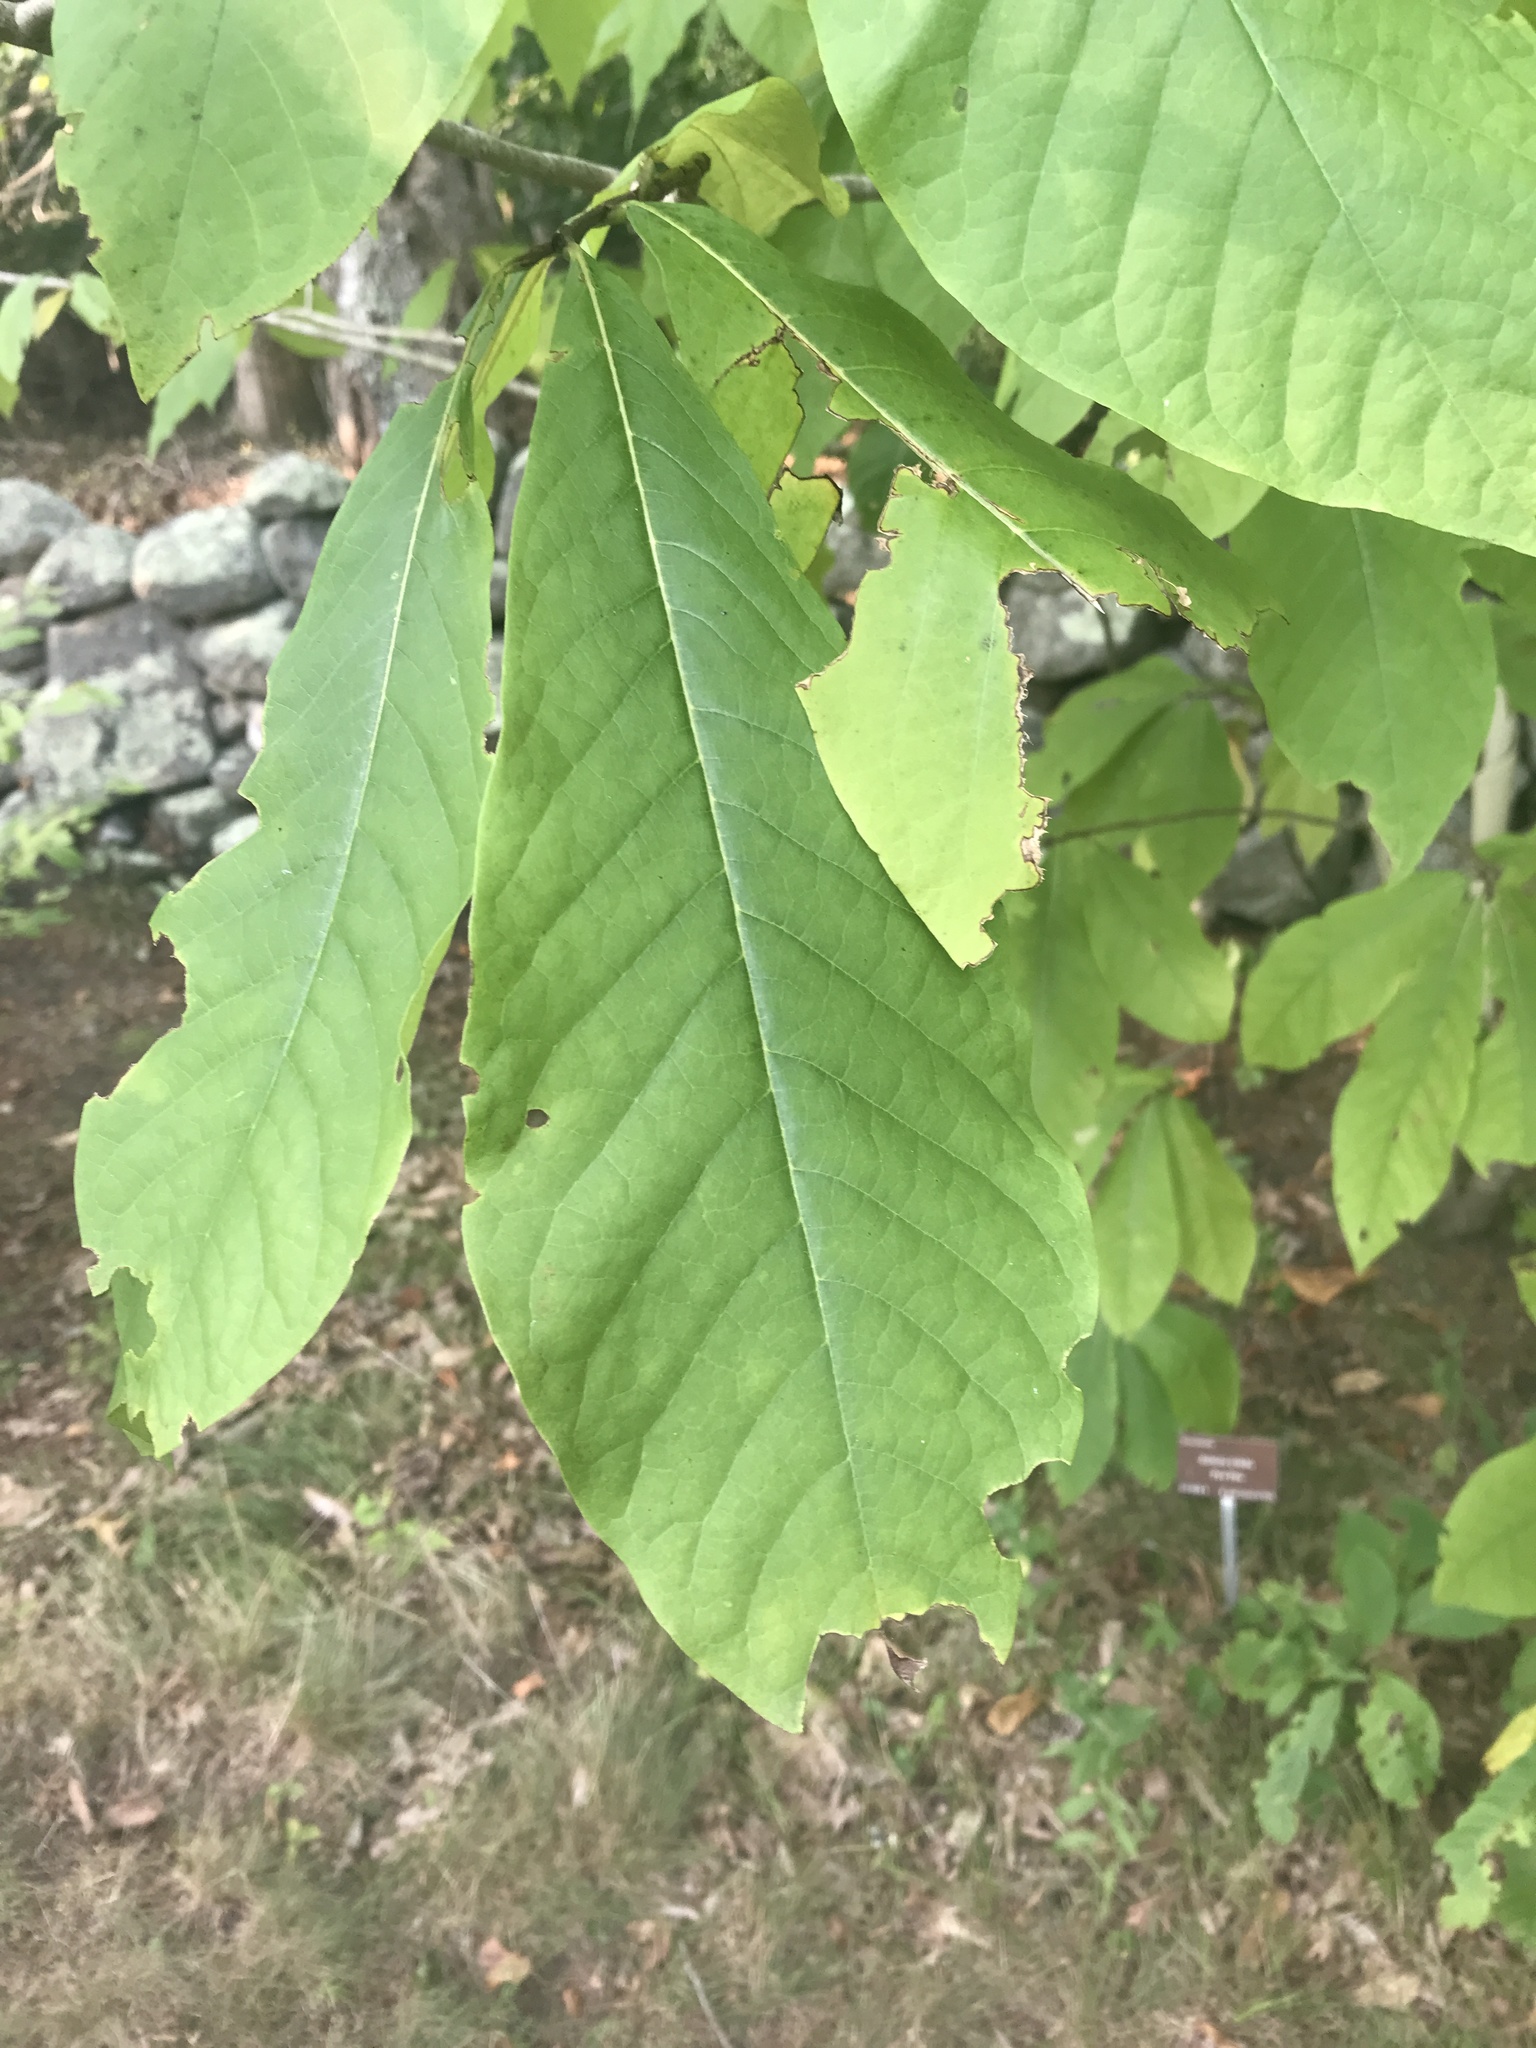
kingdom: Plantae
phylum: Tracheophyta
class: Magnoliopsida
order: Magnoliales
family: Annonaceae
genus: Asimina
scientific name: Asimina triloba
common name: Dog-banana
